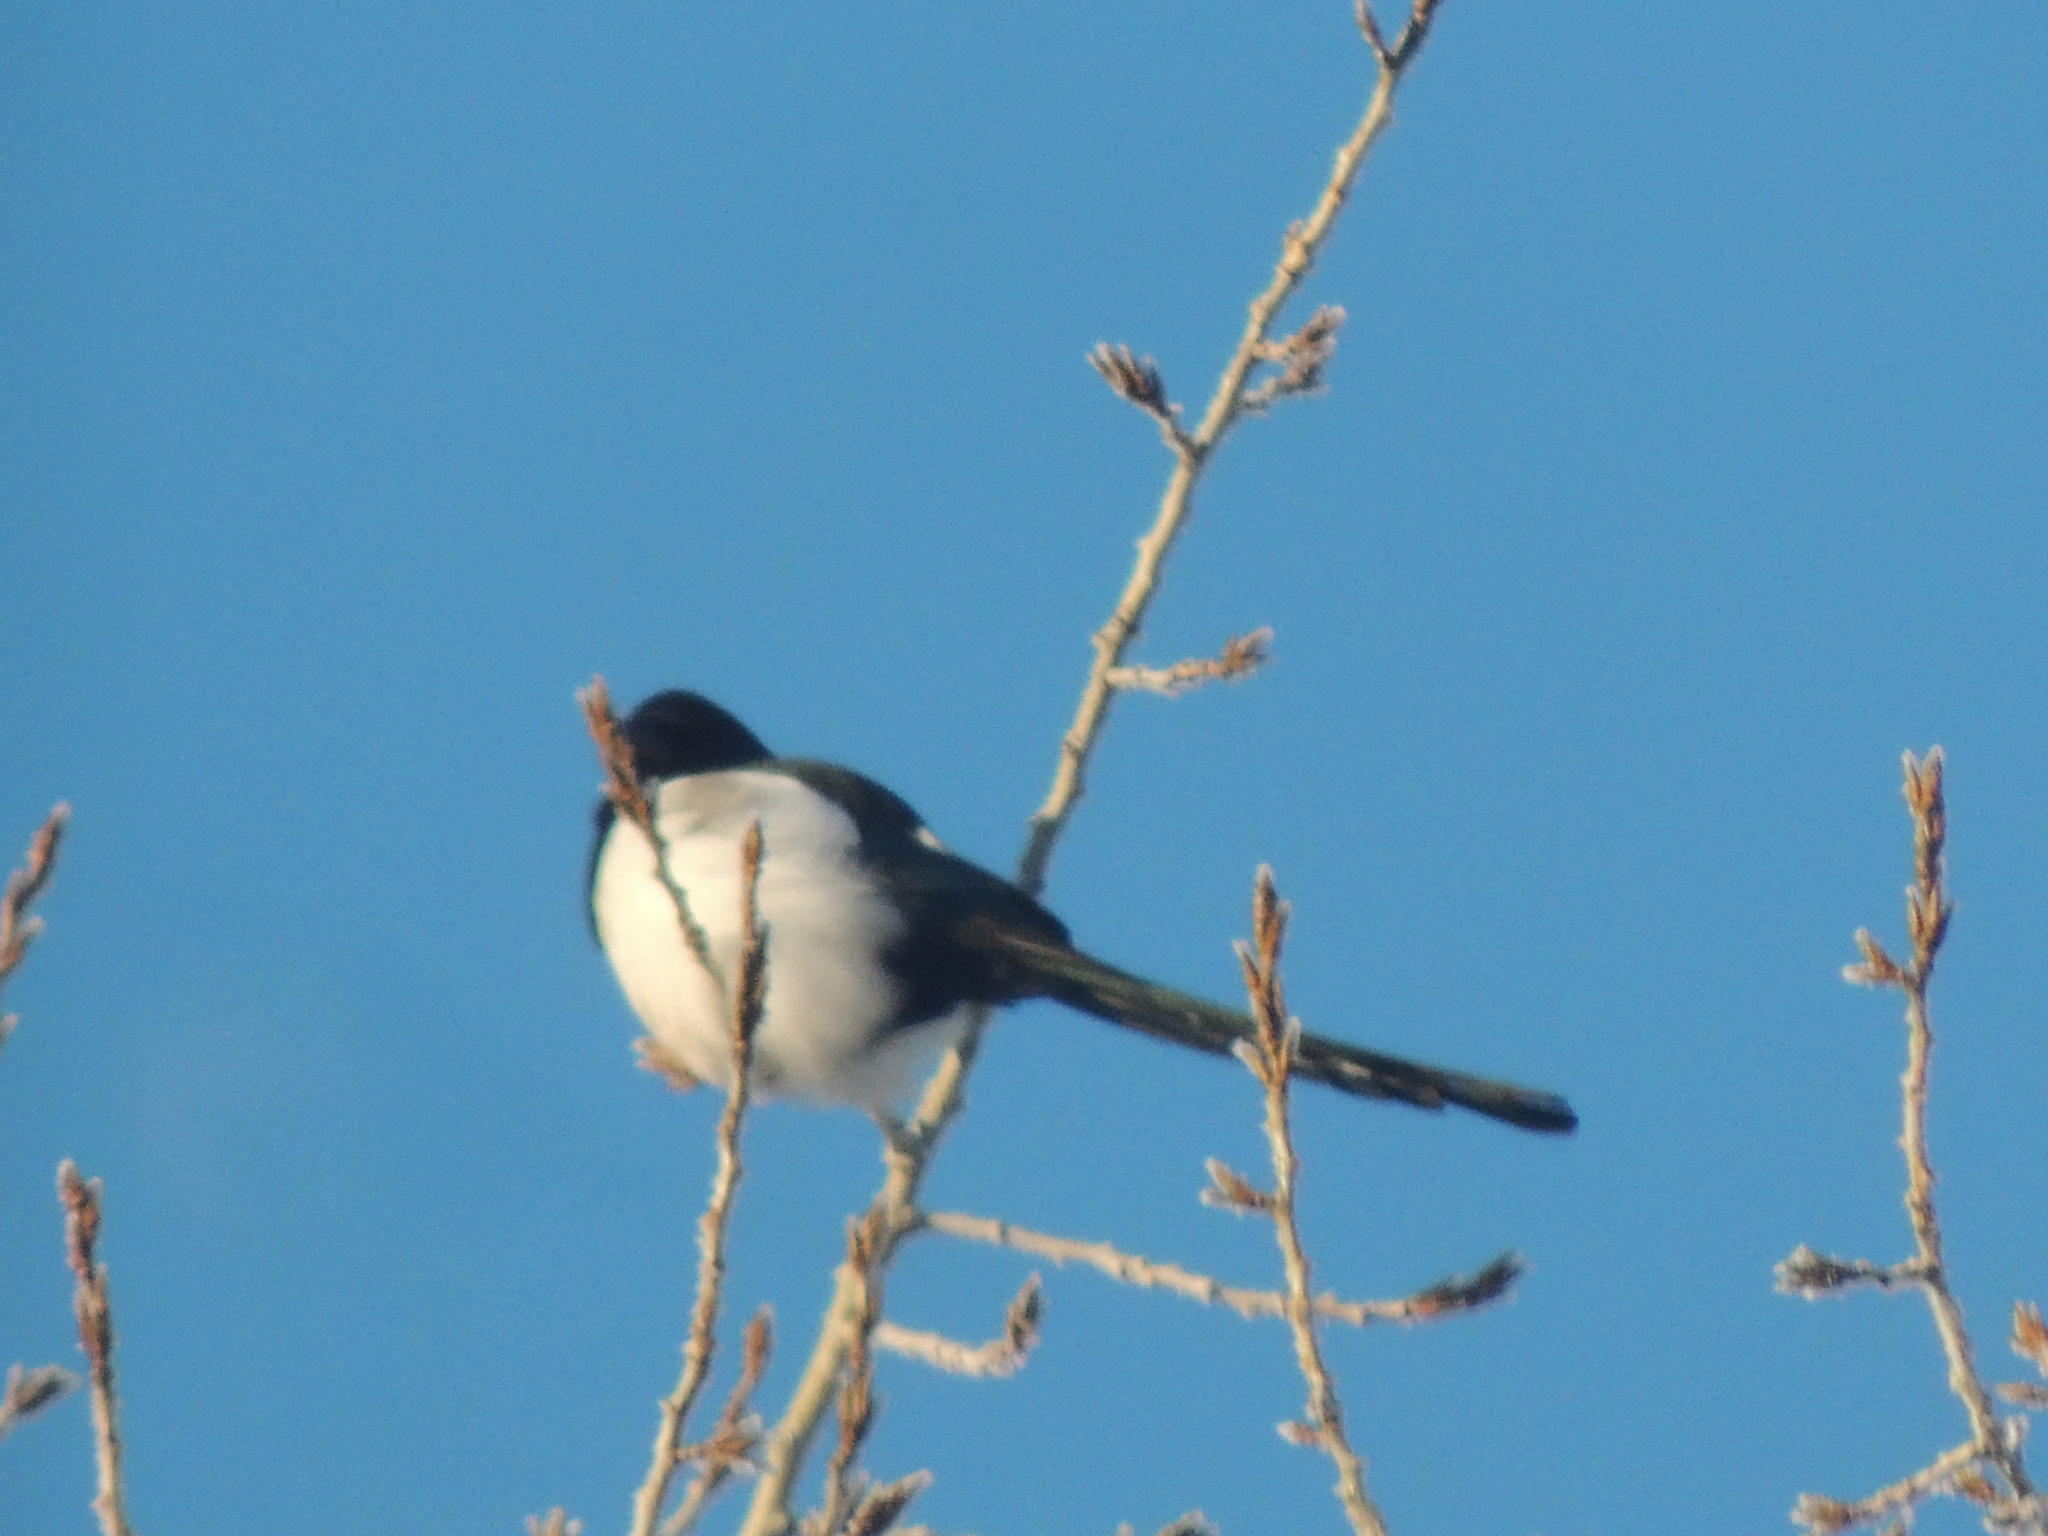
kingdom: Animalia
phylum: Chordata
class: Aves
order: Passeriformes
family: Corvidae
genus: Pica
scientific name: Pica pica
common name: Eurasian magpie
